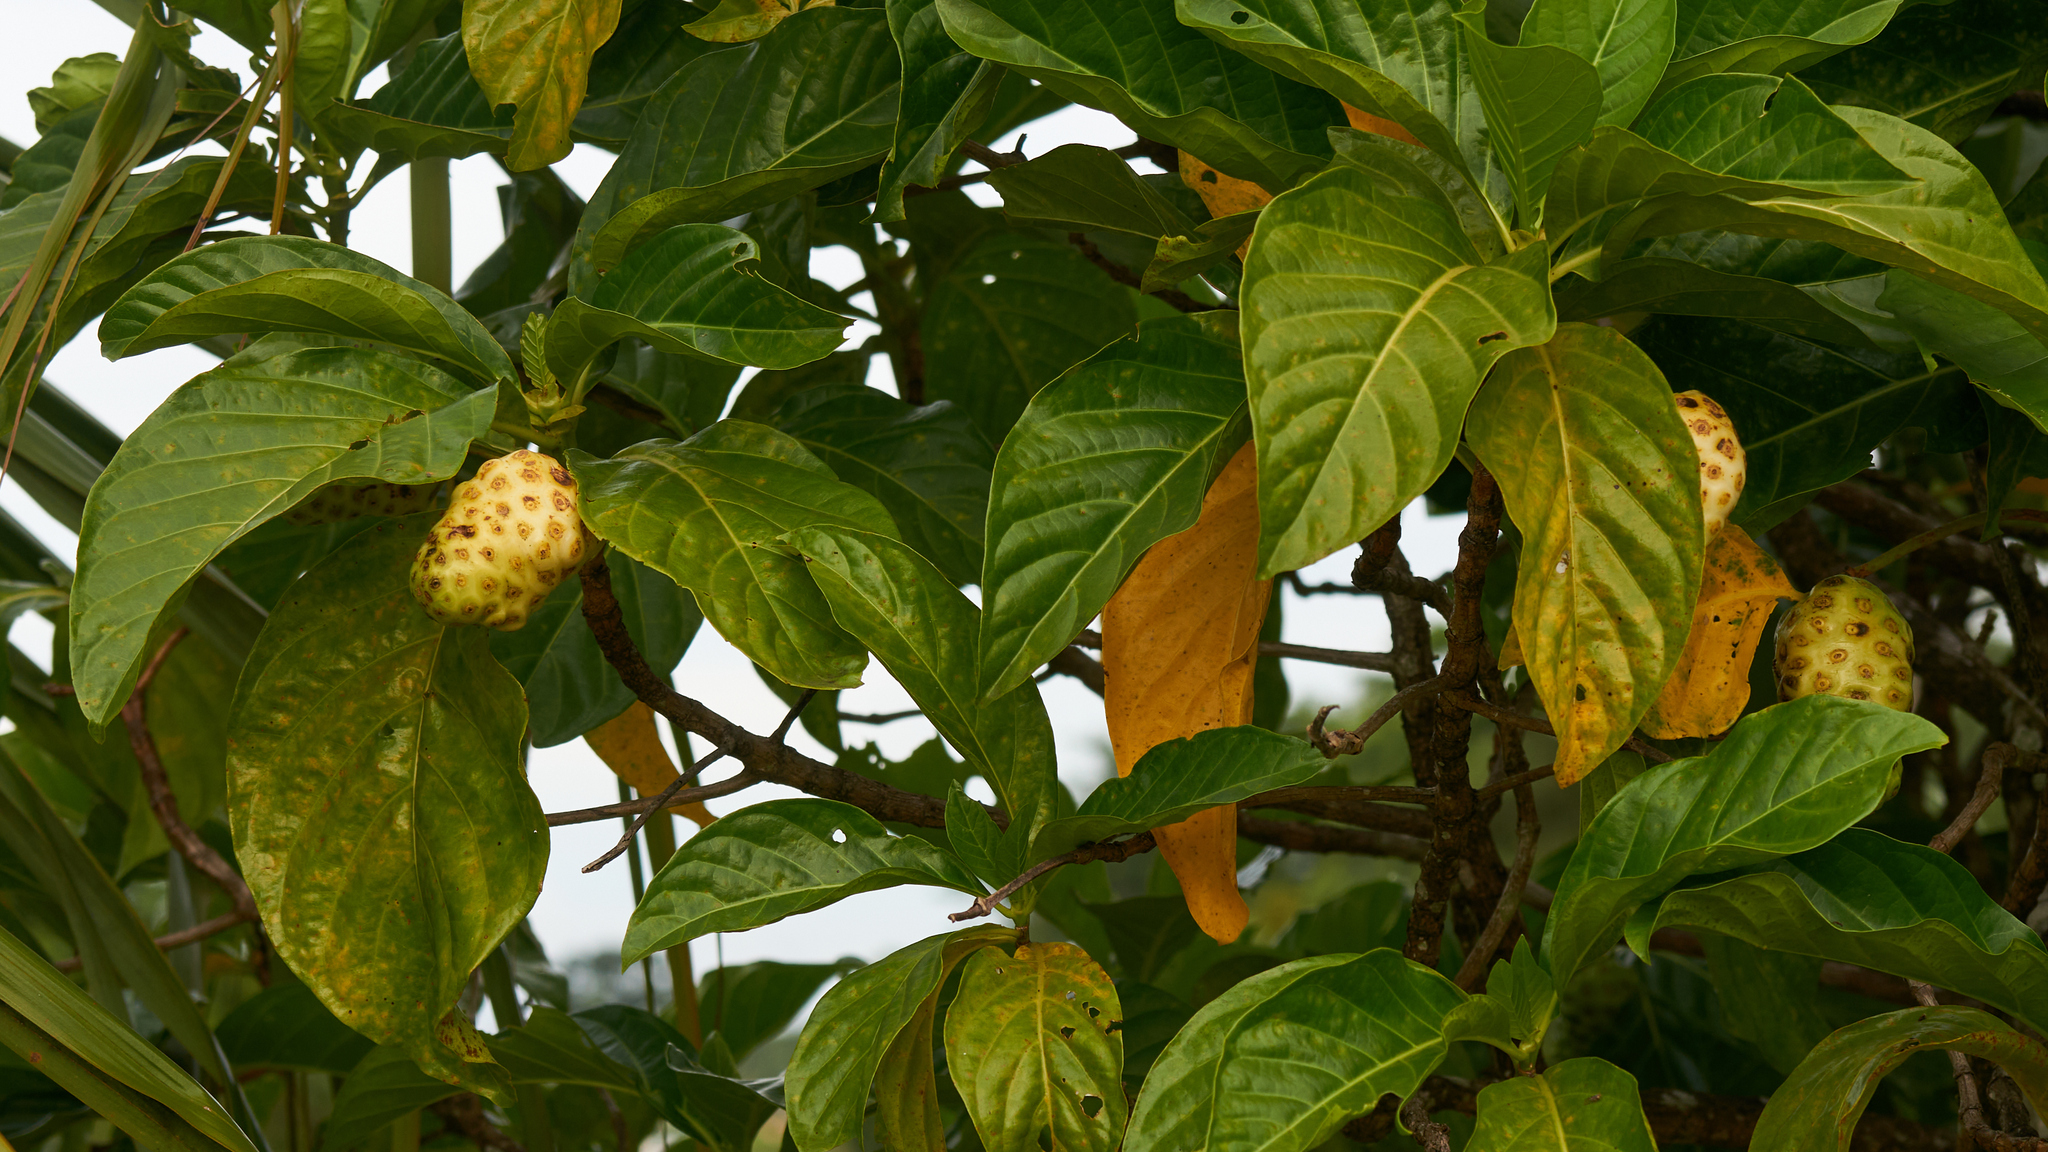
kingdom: Plantae
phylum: Tracheophyta
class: Magnoliopsida
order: Gentianales
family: Rubiaceae
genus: Morinda
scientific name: Morinda citrifolia
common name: Indian-mulberry
